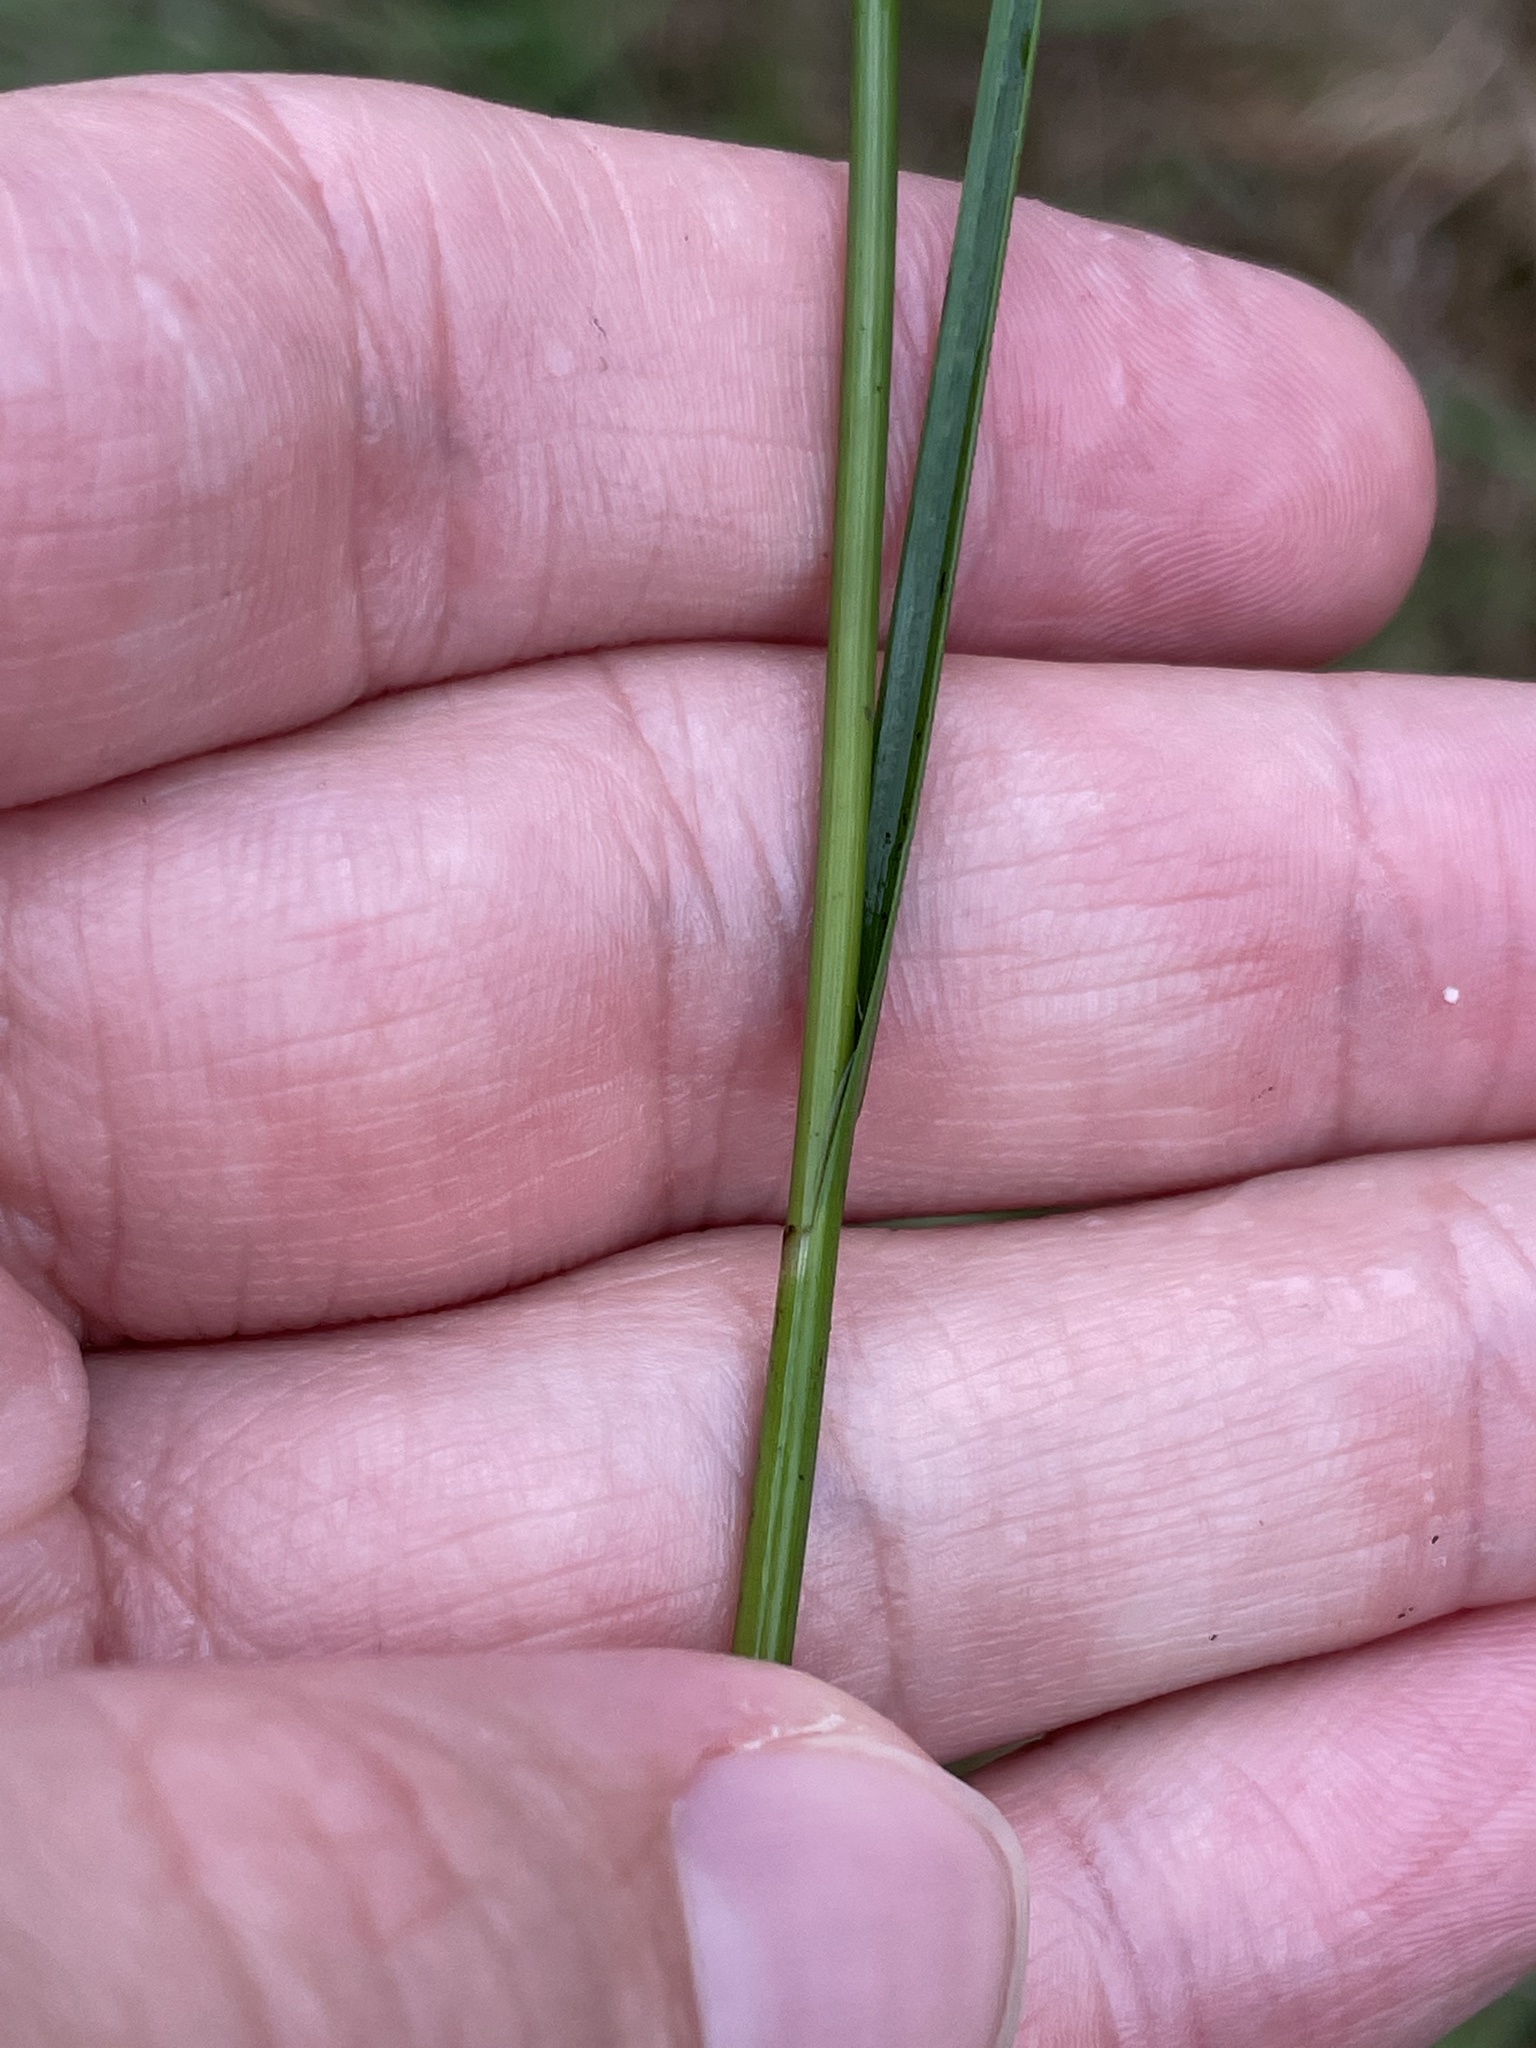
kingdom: Plantae
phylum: Tracheophyta
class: Liliopsida
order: Poales
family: Cyperaceae
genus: Rhynchospora
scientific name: Rhynchospora inexpansa
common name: Nodding beaksedge
